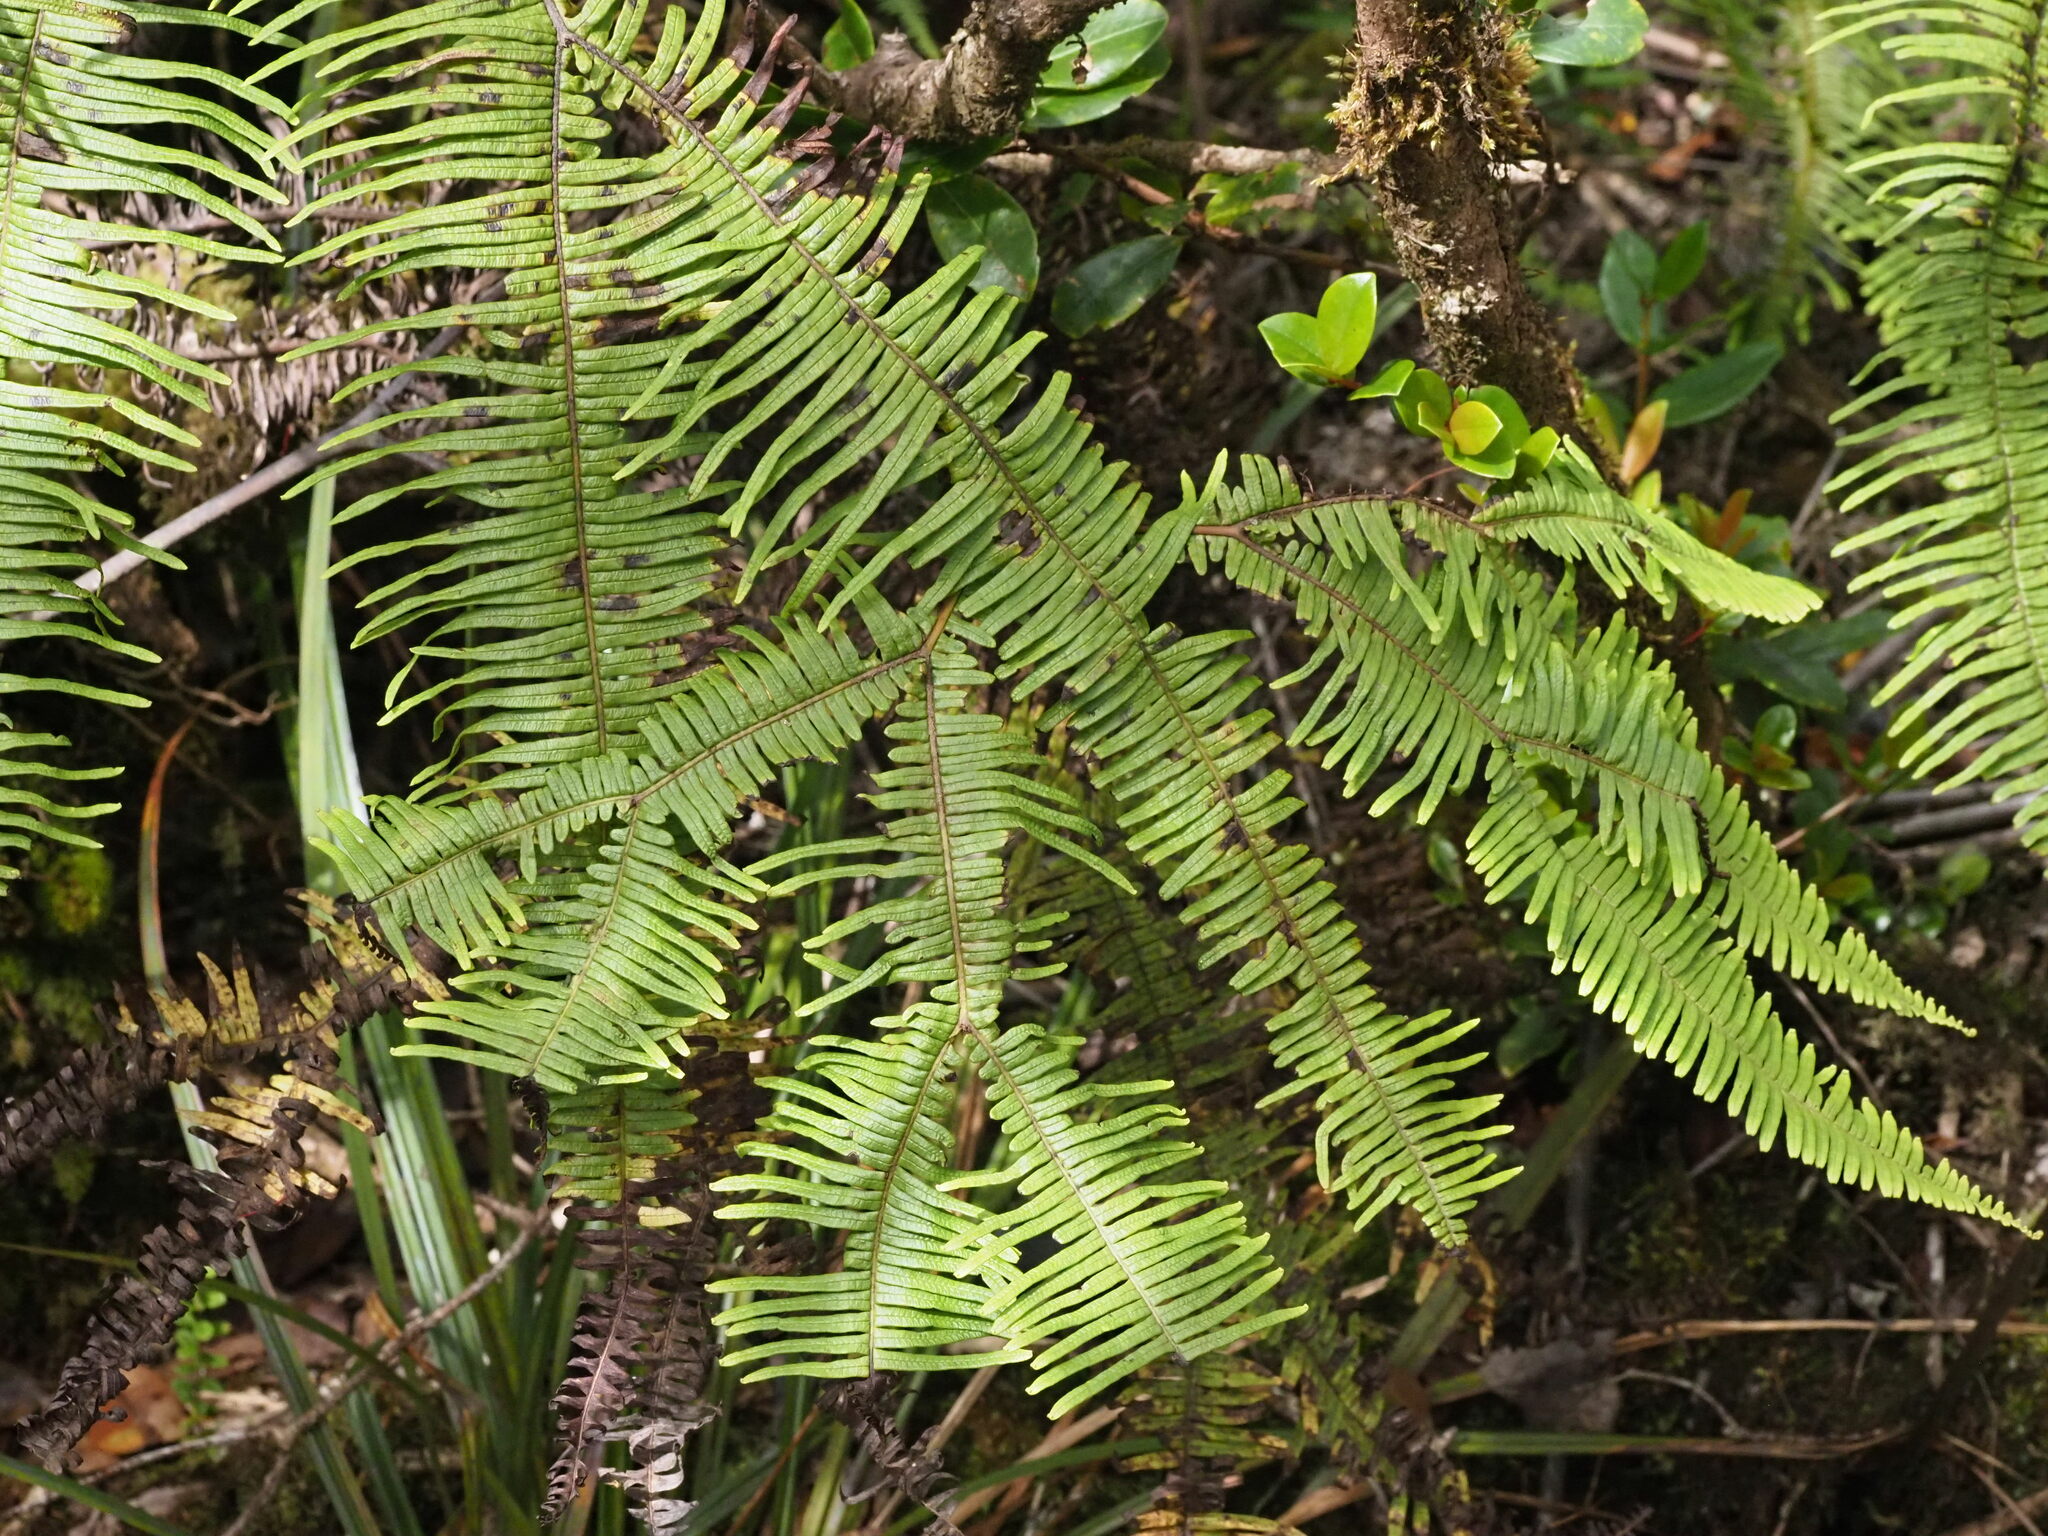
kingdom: Plantae
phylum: Tracheophyta
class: Polypodiopsida
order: Gleicheniales
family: Gleicheniaceae
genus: Sticherus
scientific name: Sticherus owhyhensis
